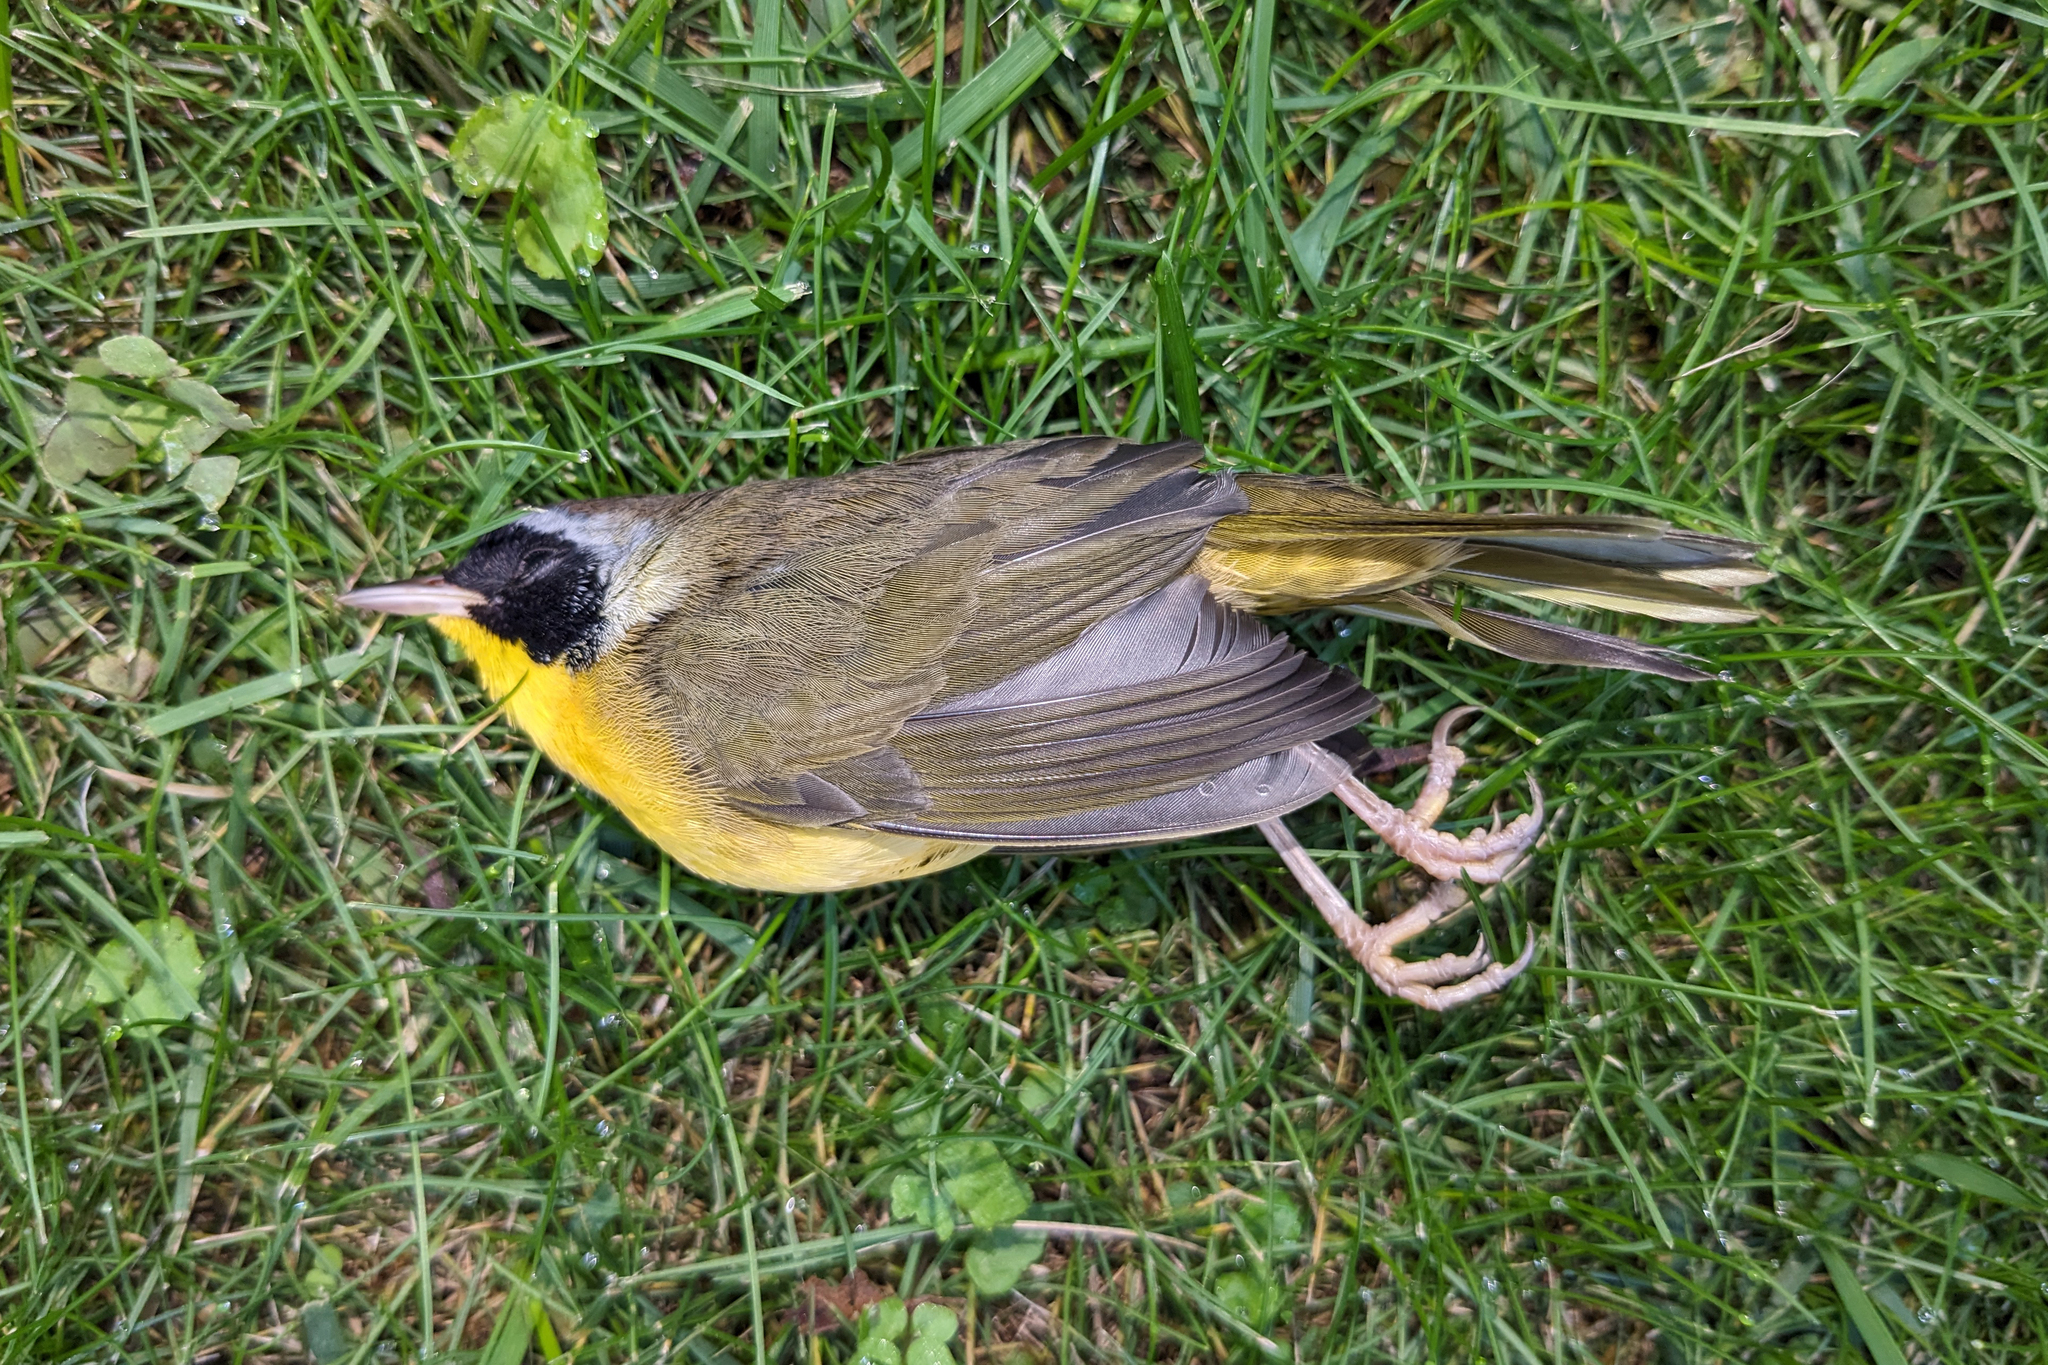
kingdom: Animalia
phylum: Chordata
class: Aves
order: Passeriformes
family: Parulidae
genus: Geothlypis
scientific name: Geothlypis trichas
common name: Common yellowthroat
